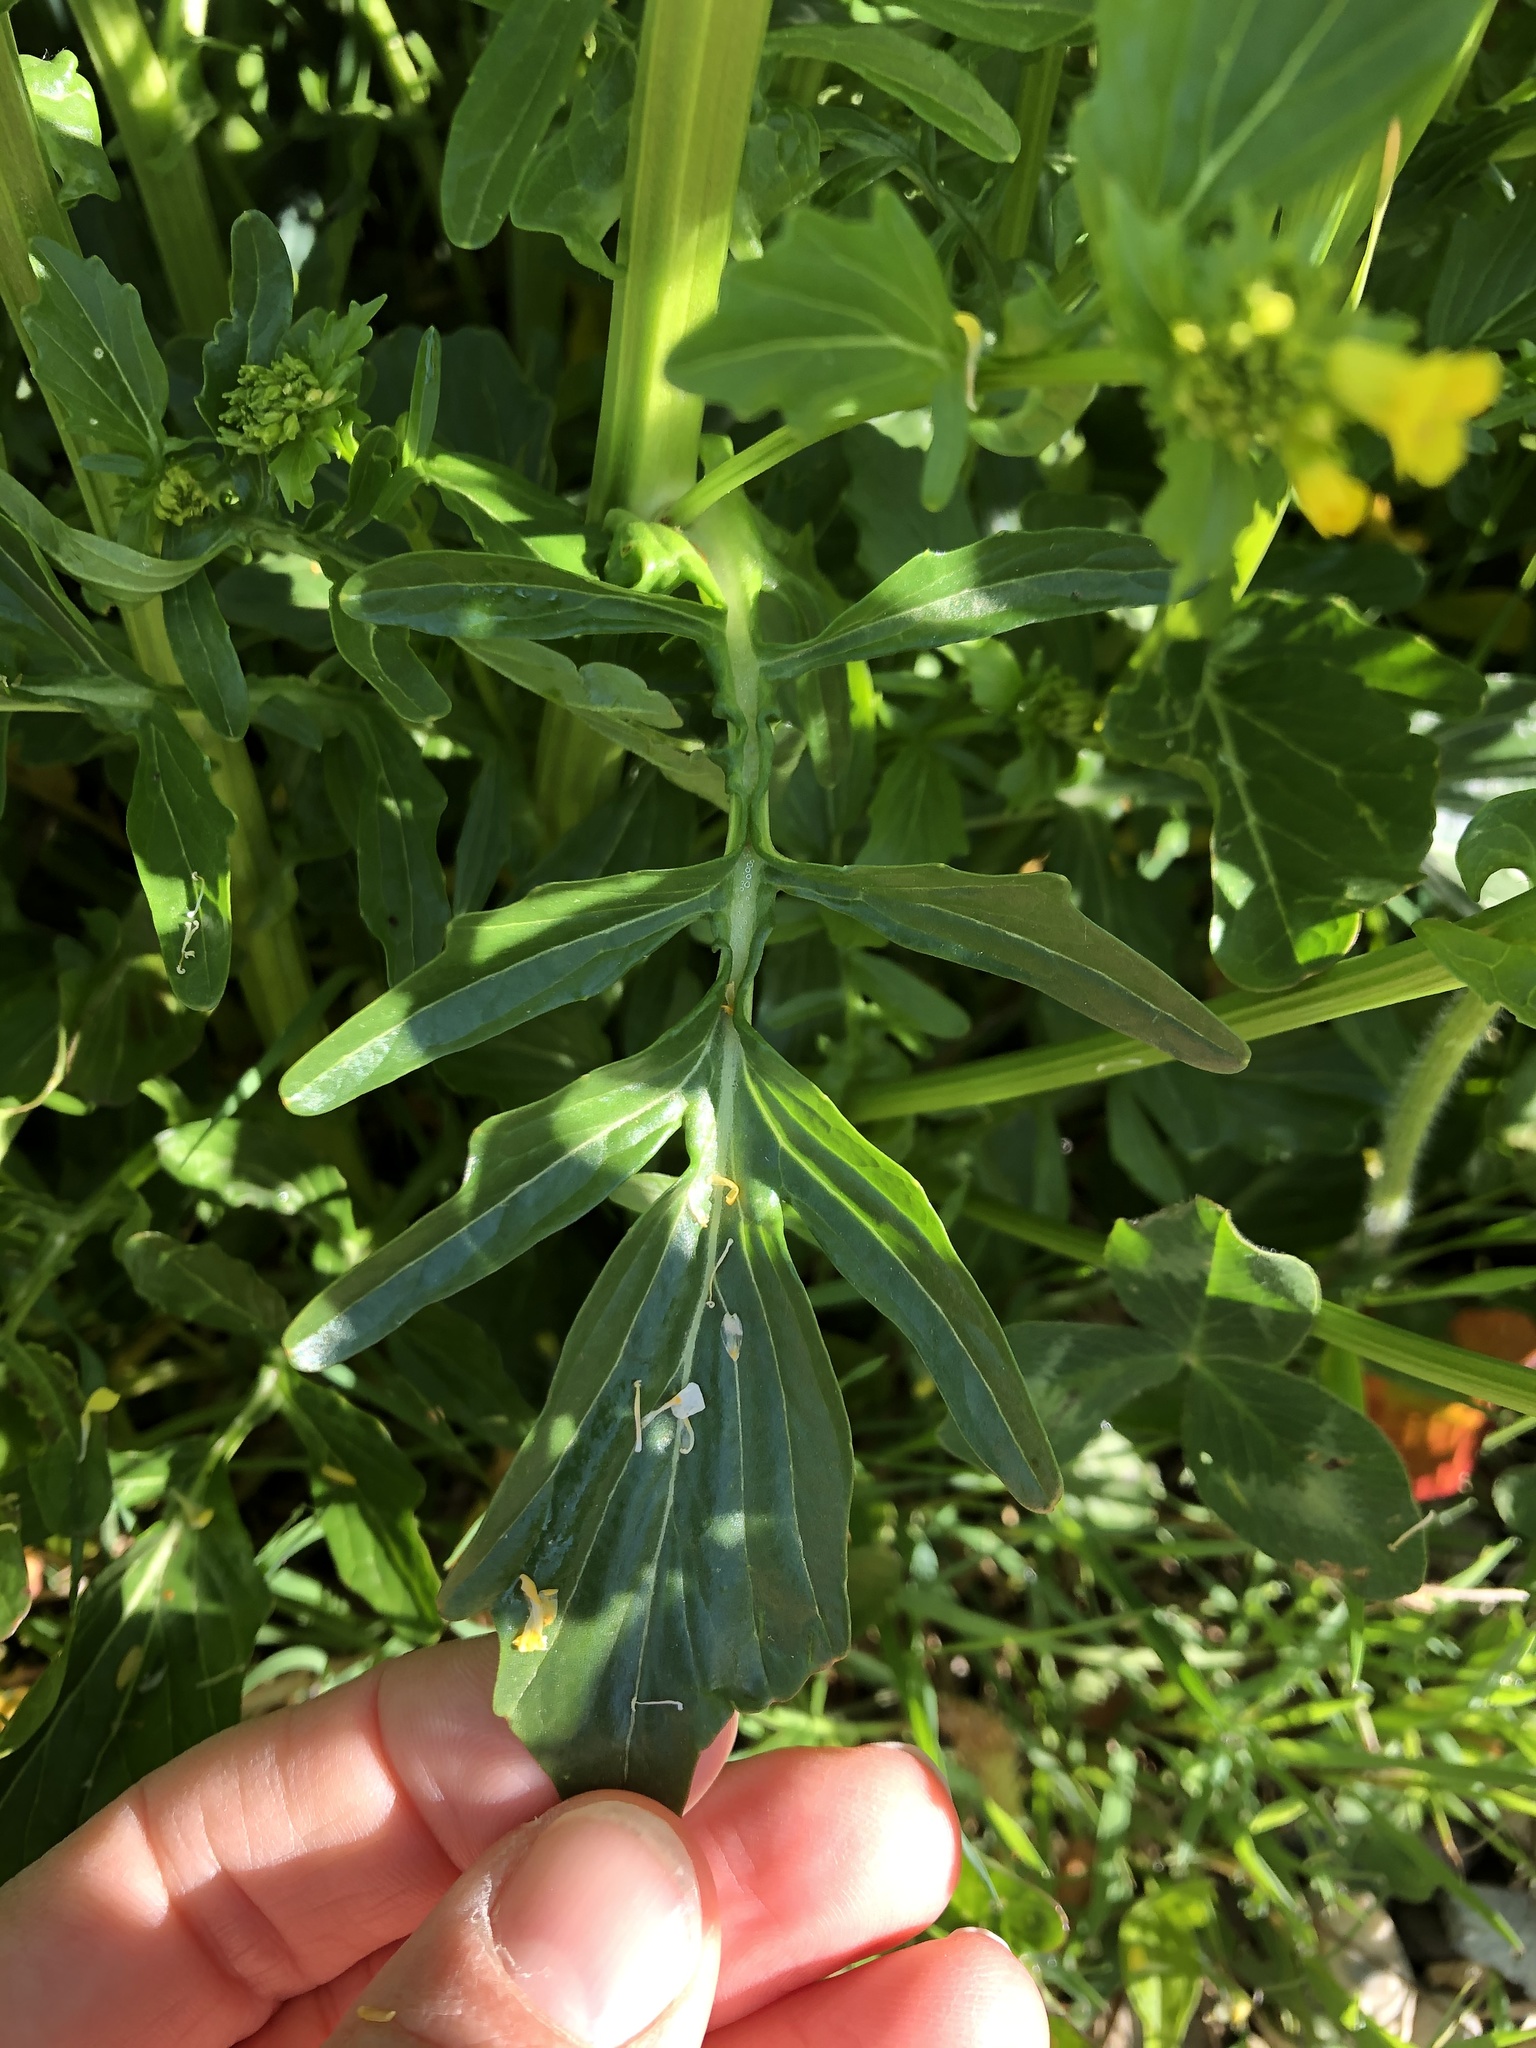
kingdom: Plantae
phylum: Tracheophyta
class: Magnoliopsida
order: Brassicales
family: Brassicaceae
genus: Barbarea
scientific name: Barbarea vulgaris
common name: Cressy-greens
